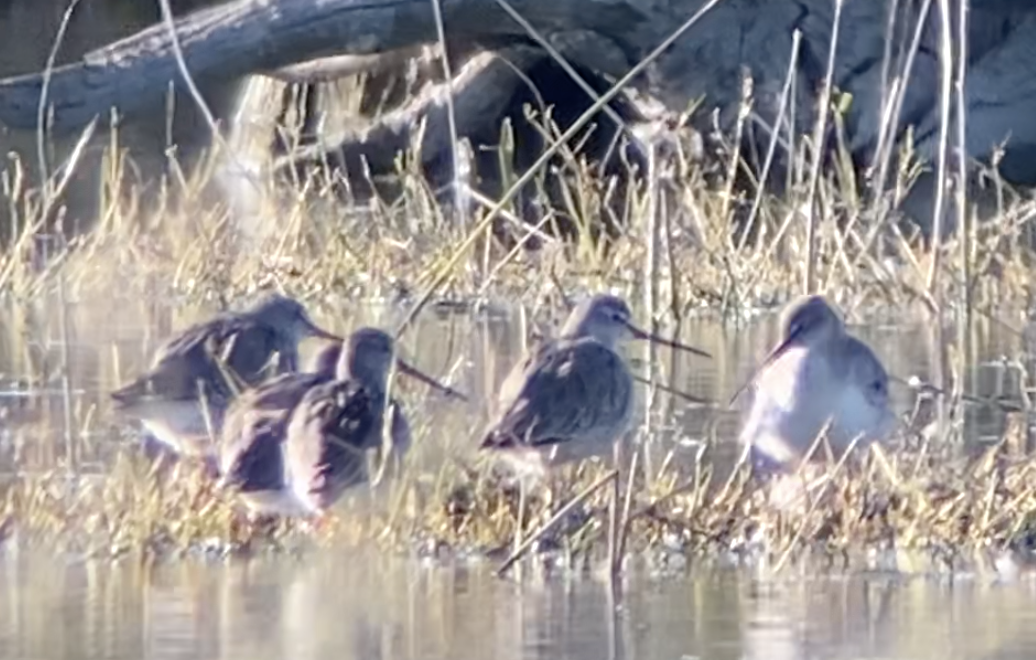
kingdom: Animalia
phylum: Chordata
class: Aves
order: Charadriiformes
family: Scolopacidae
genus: Tringa
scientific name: Tringa erythropus
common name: Spotted redshank
